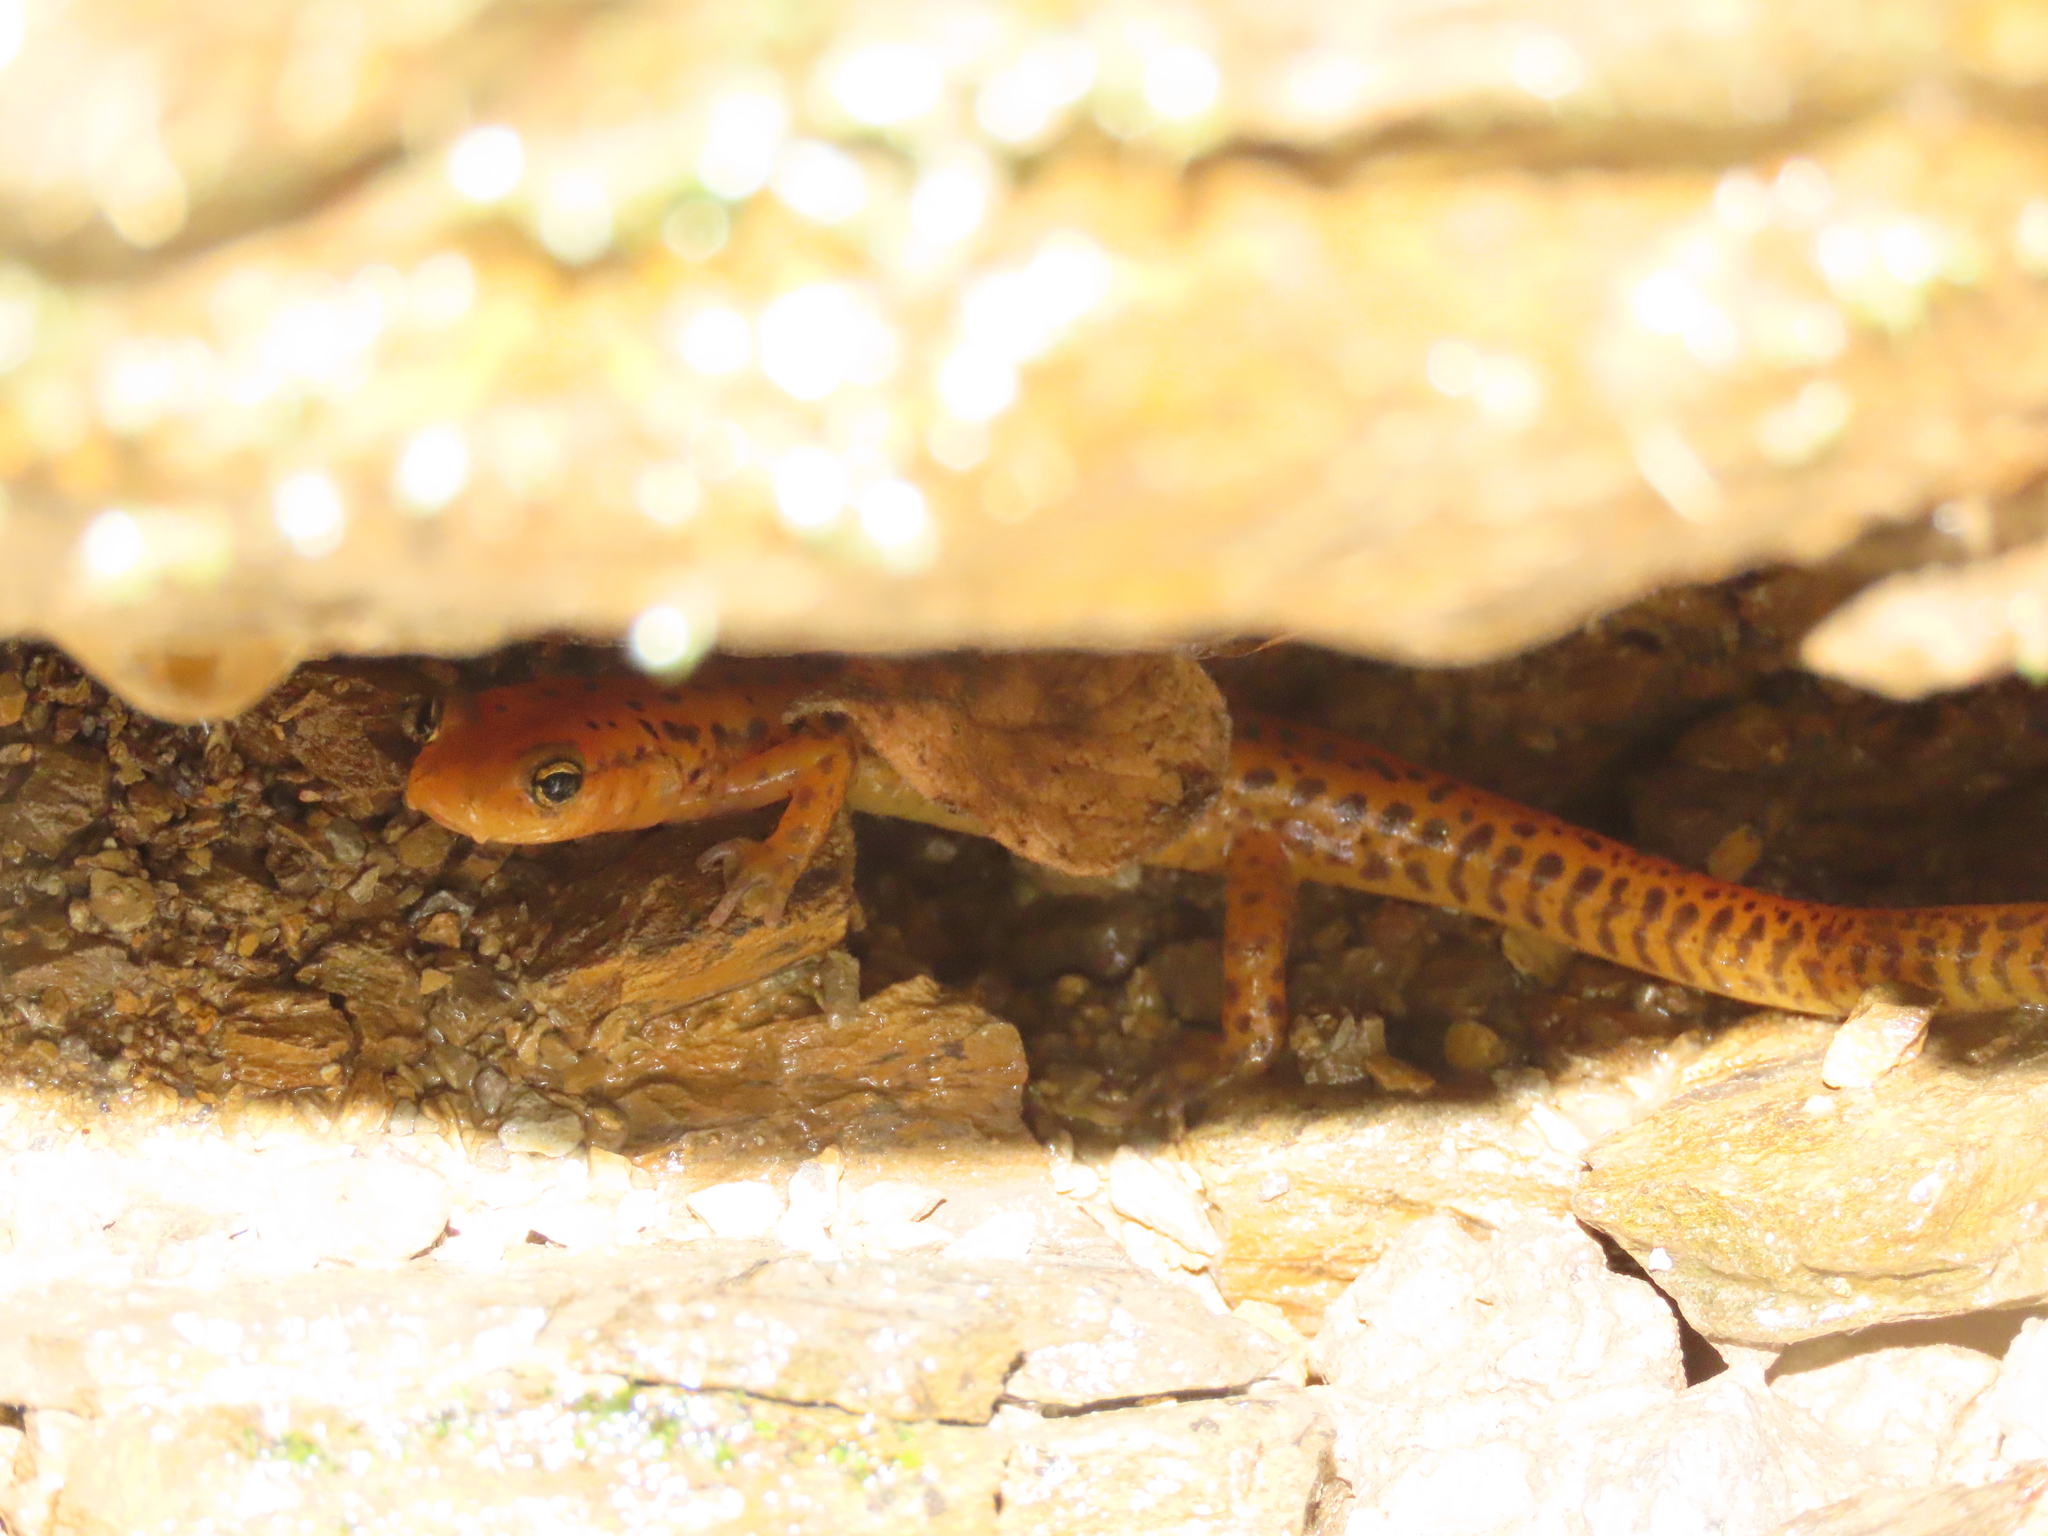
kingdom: Animalia
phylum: Chordata
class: Amphibia
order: Caudata
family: Plethodontidae
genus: Eurycea
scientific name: Eurycea longicauda
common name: Long-tailed salamander
